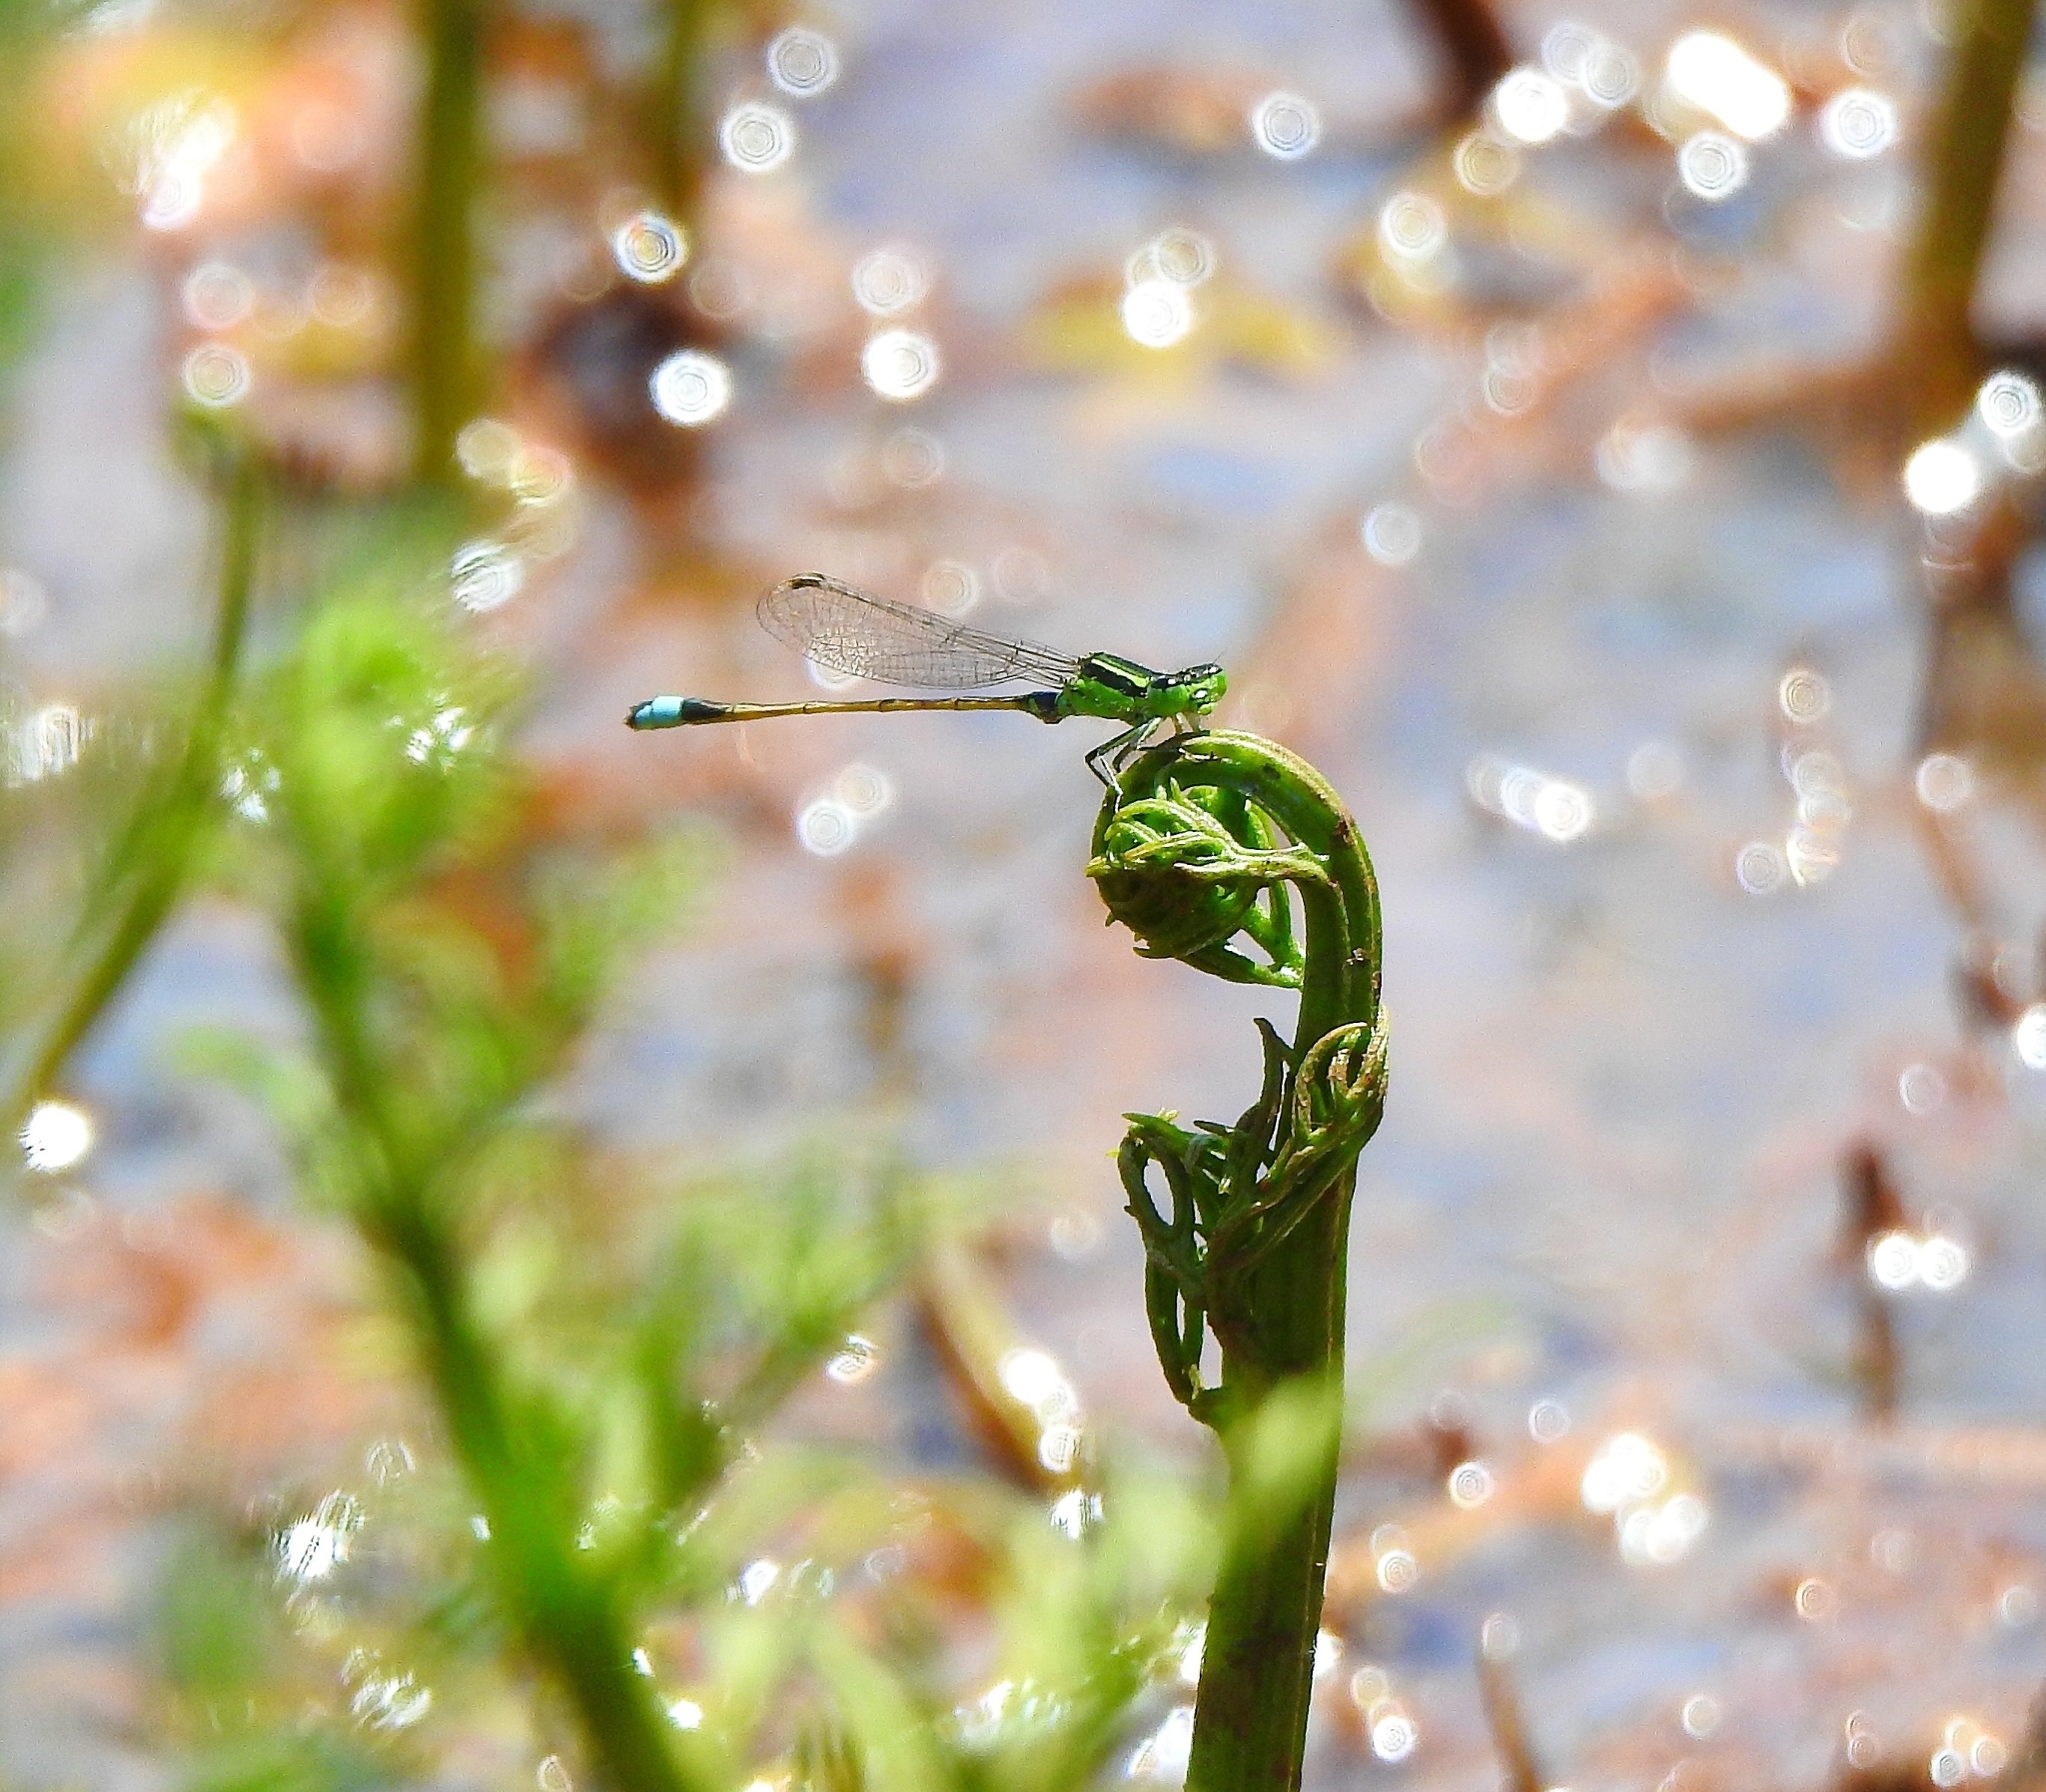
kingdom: Animalia
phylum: Arthropoda
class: Insecta
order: Odonata
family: Coenagrionidae
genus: Ischnura
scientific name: Ischnura senegalensis
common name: Tropical bluetail
